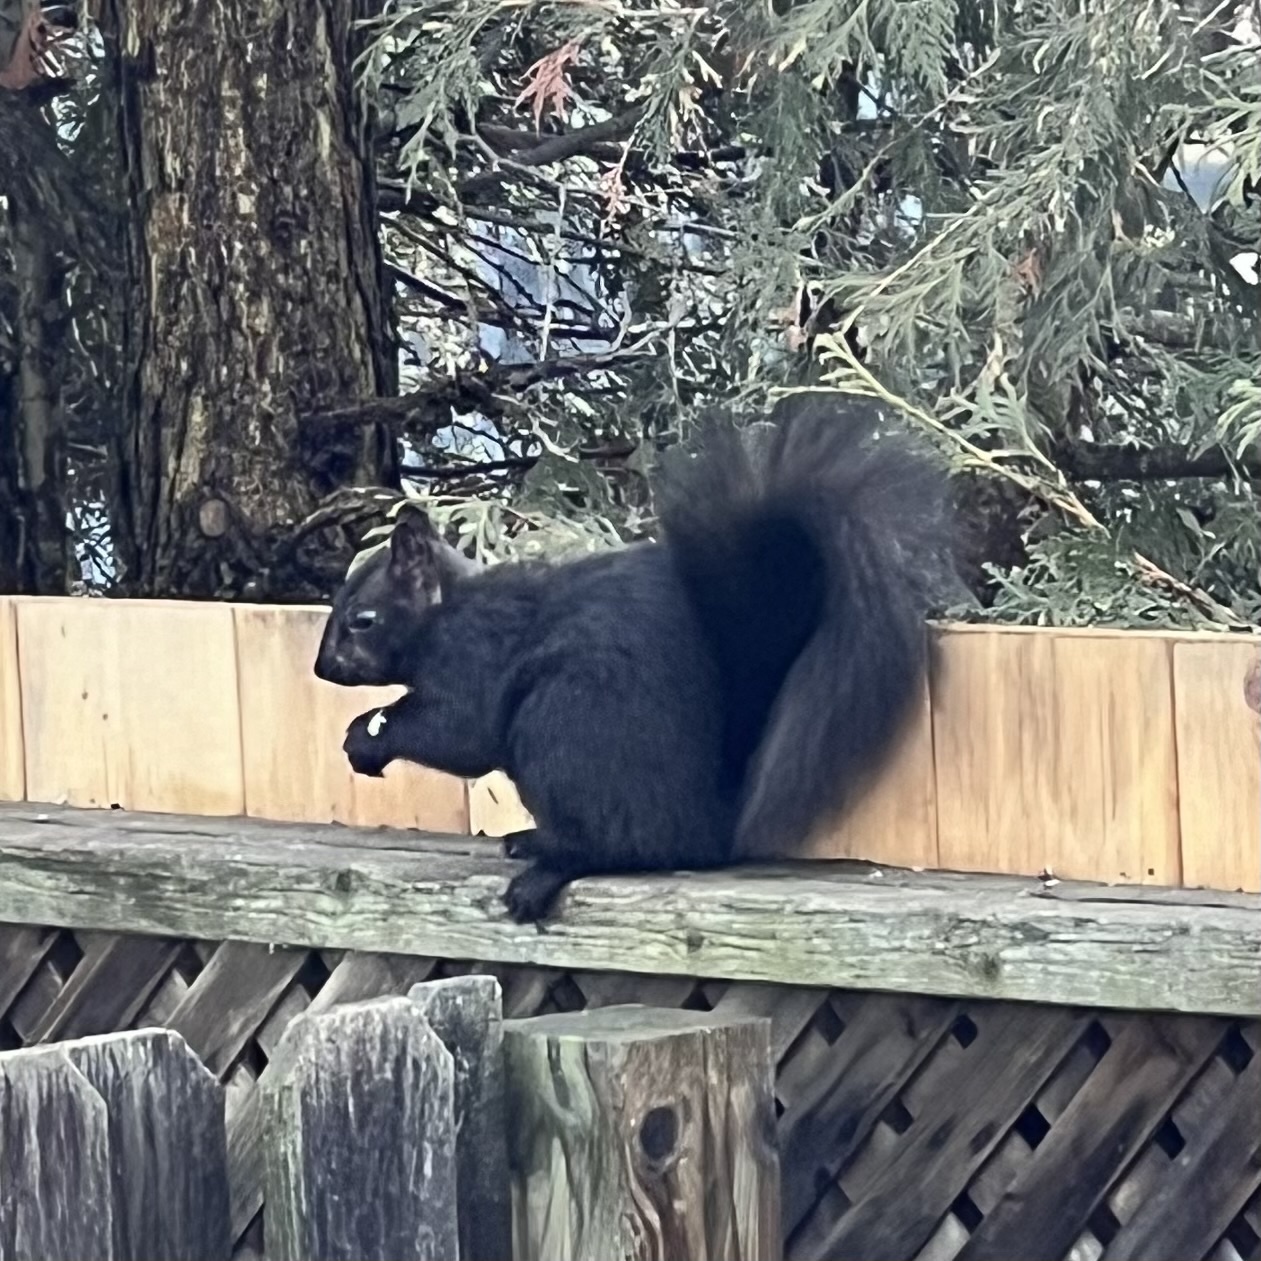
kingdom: Animalia
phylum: Chordata
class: Mammalia
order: Rodentia
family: Sciuridae
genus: Sciurus
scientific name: Sciurus carolinensis
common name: Eastern gray squirrel
